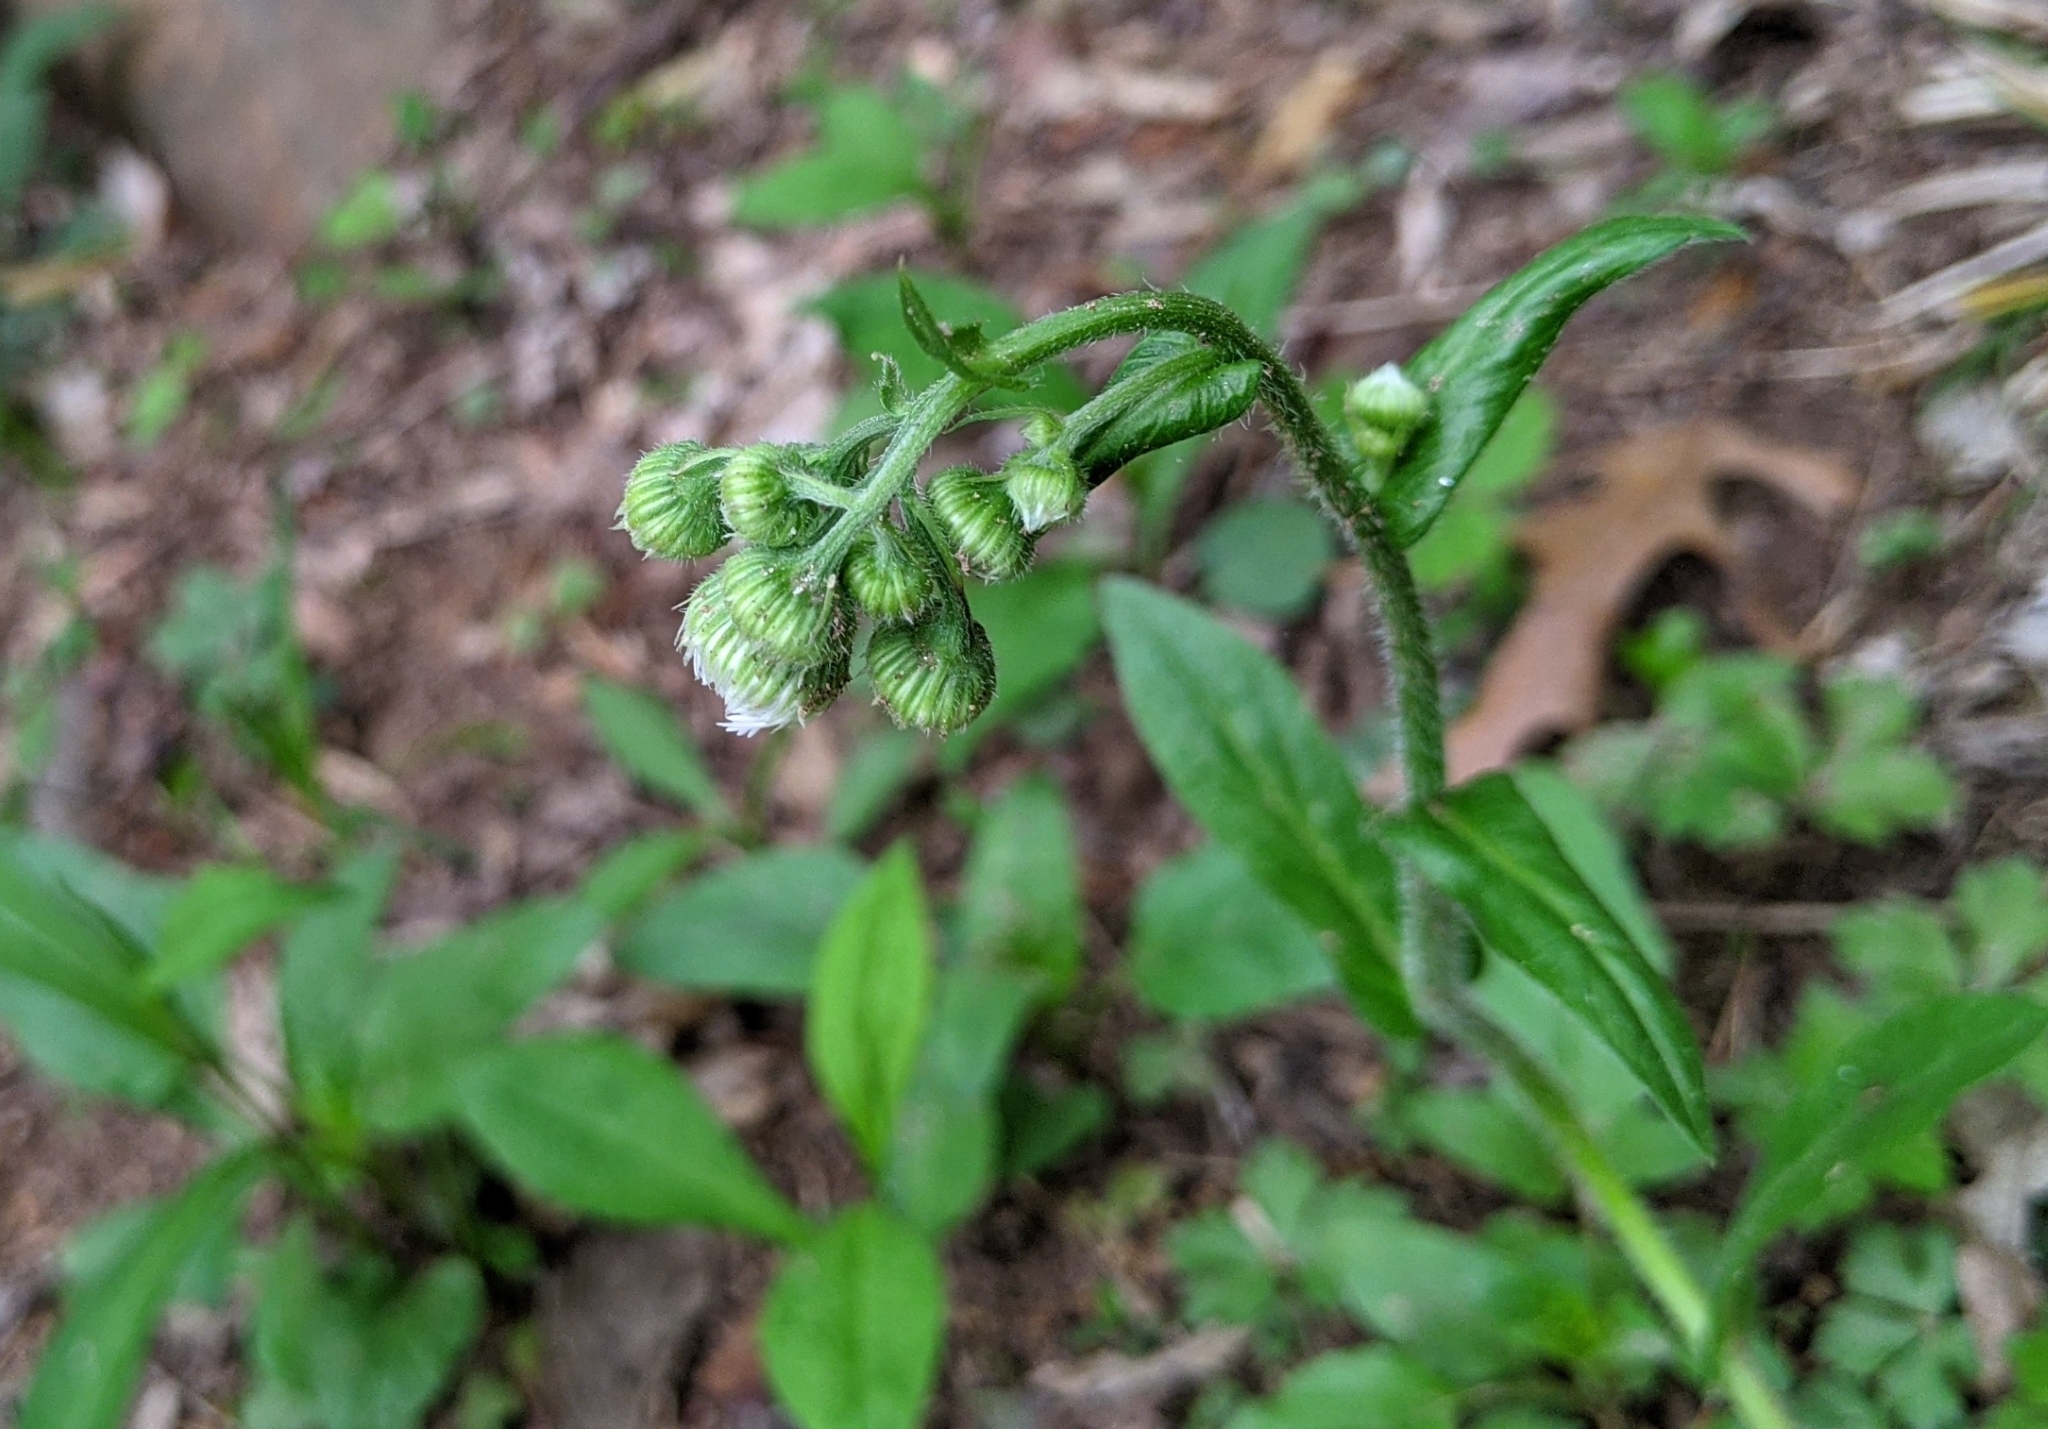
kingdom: Plantae
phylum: Tracheophyta
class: Magnoliopsida
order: Asterales
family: Asteraceae
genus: Erigeron
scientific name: Erigeron philadelphicus
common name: Robin's-plantain
